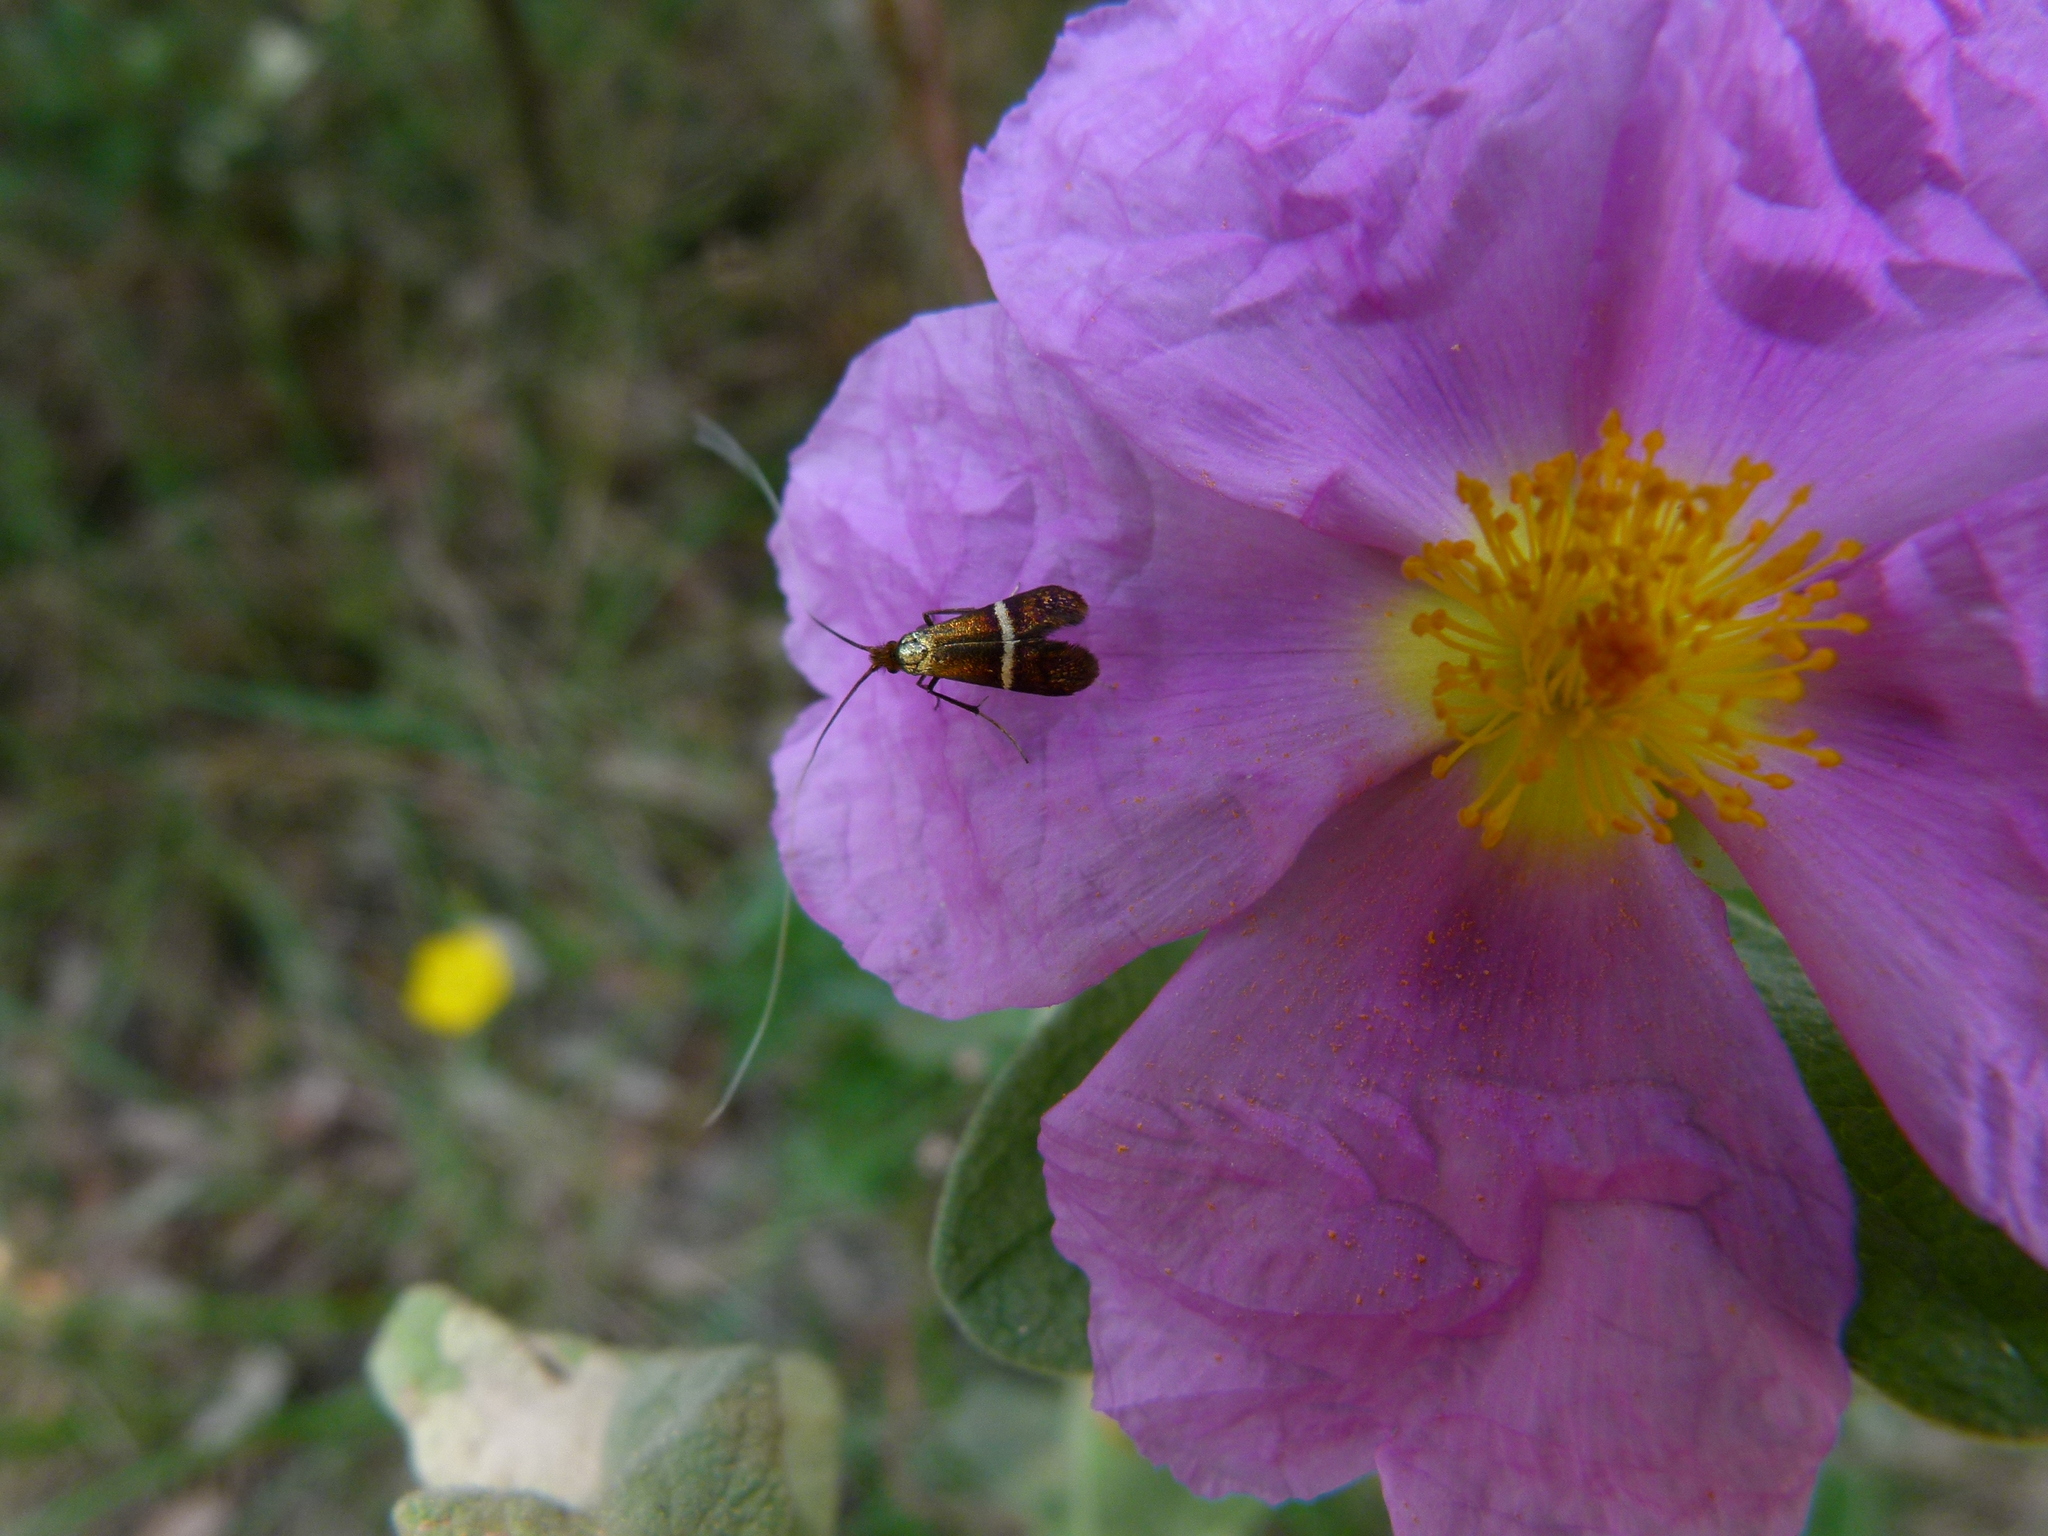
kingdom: Animalia
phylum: Arthropoda
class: Insecta
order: Lepidoptera
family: Adelidae
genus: Adela
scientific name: Adela australis
